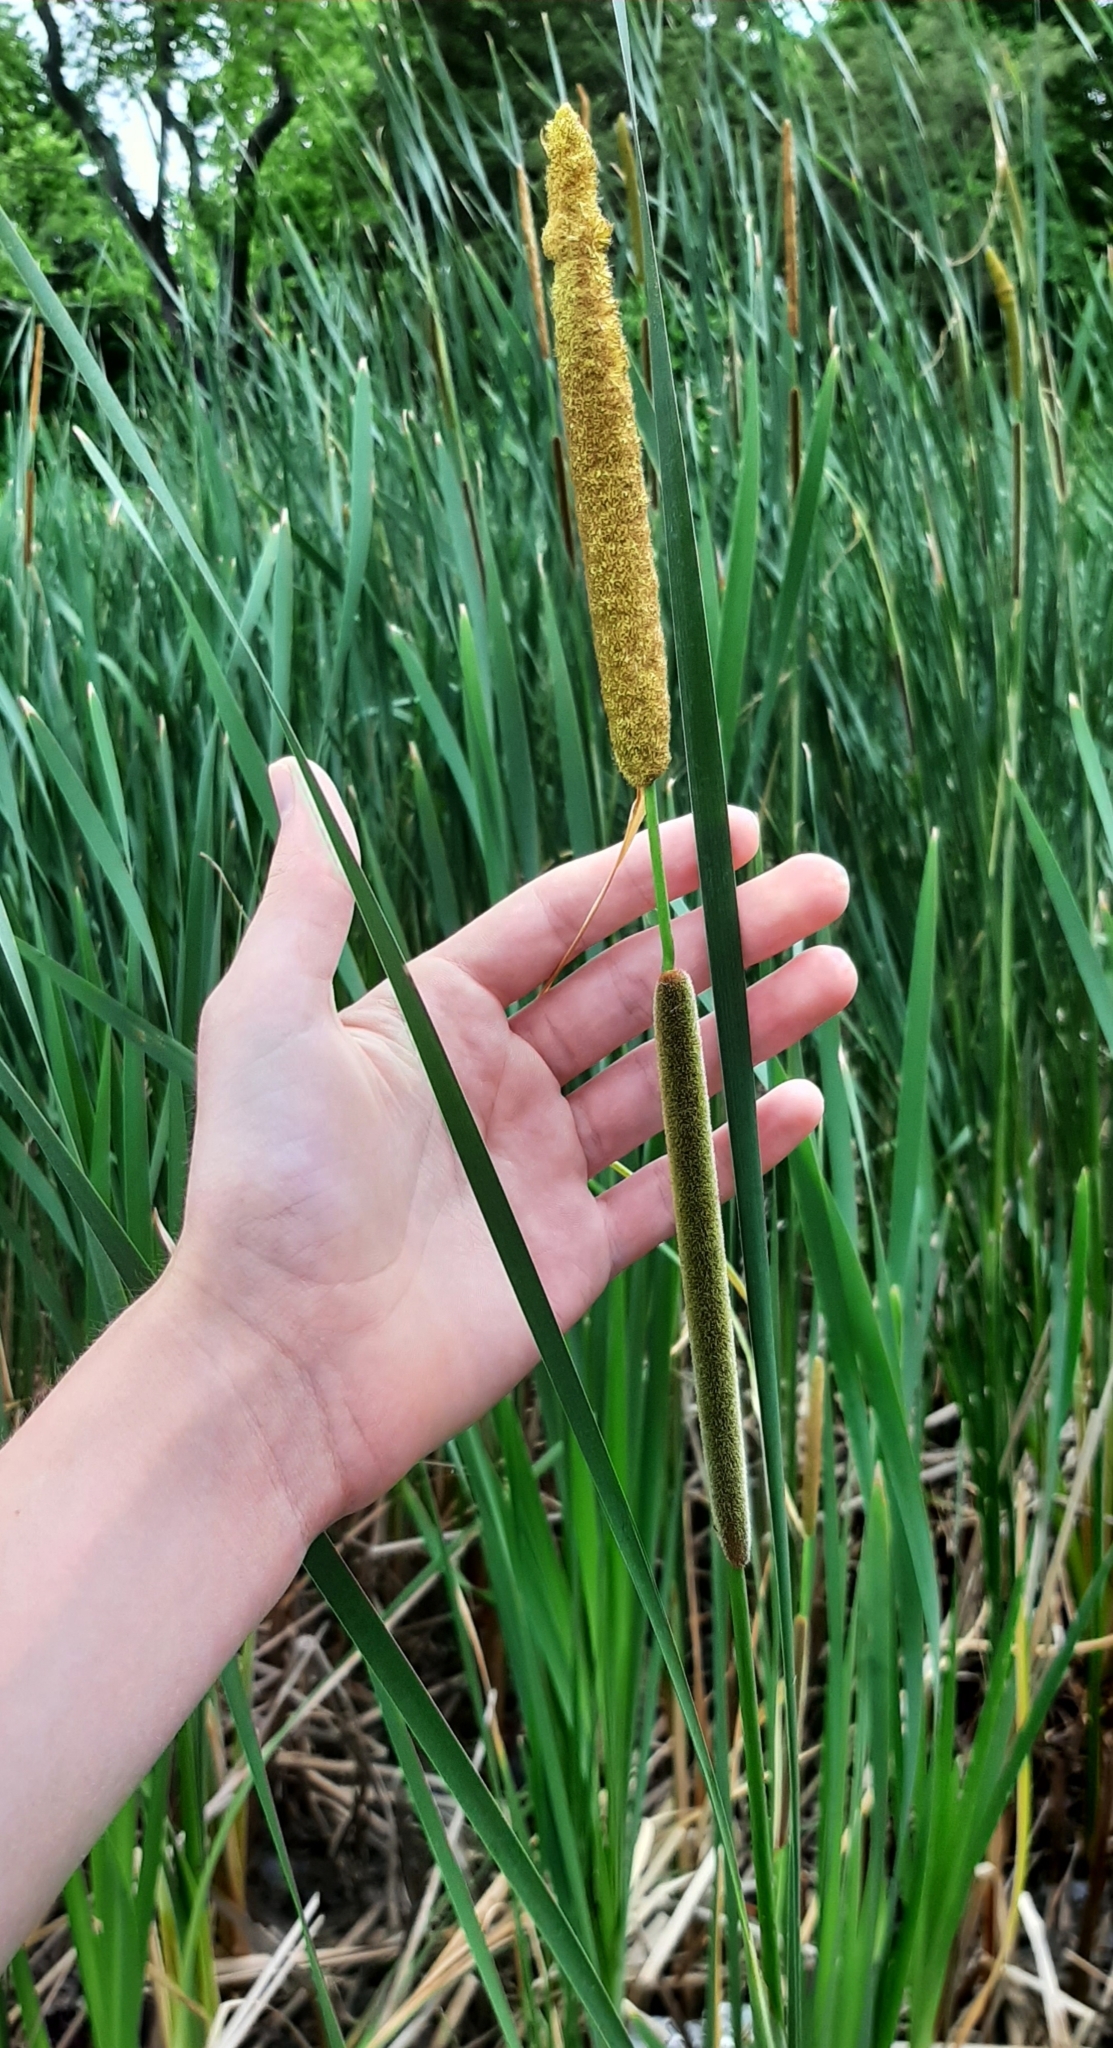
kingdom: Plantae
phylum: Tracheophyta
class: Liliopsida
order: Poales
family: Typhaceae
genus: Typha
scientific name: Typha angustifolia
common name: Lesser bulrush
